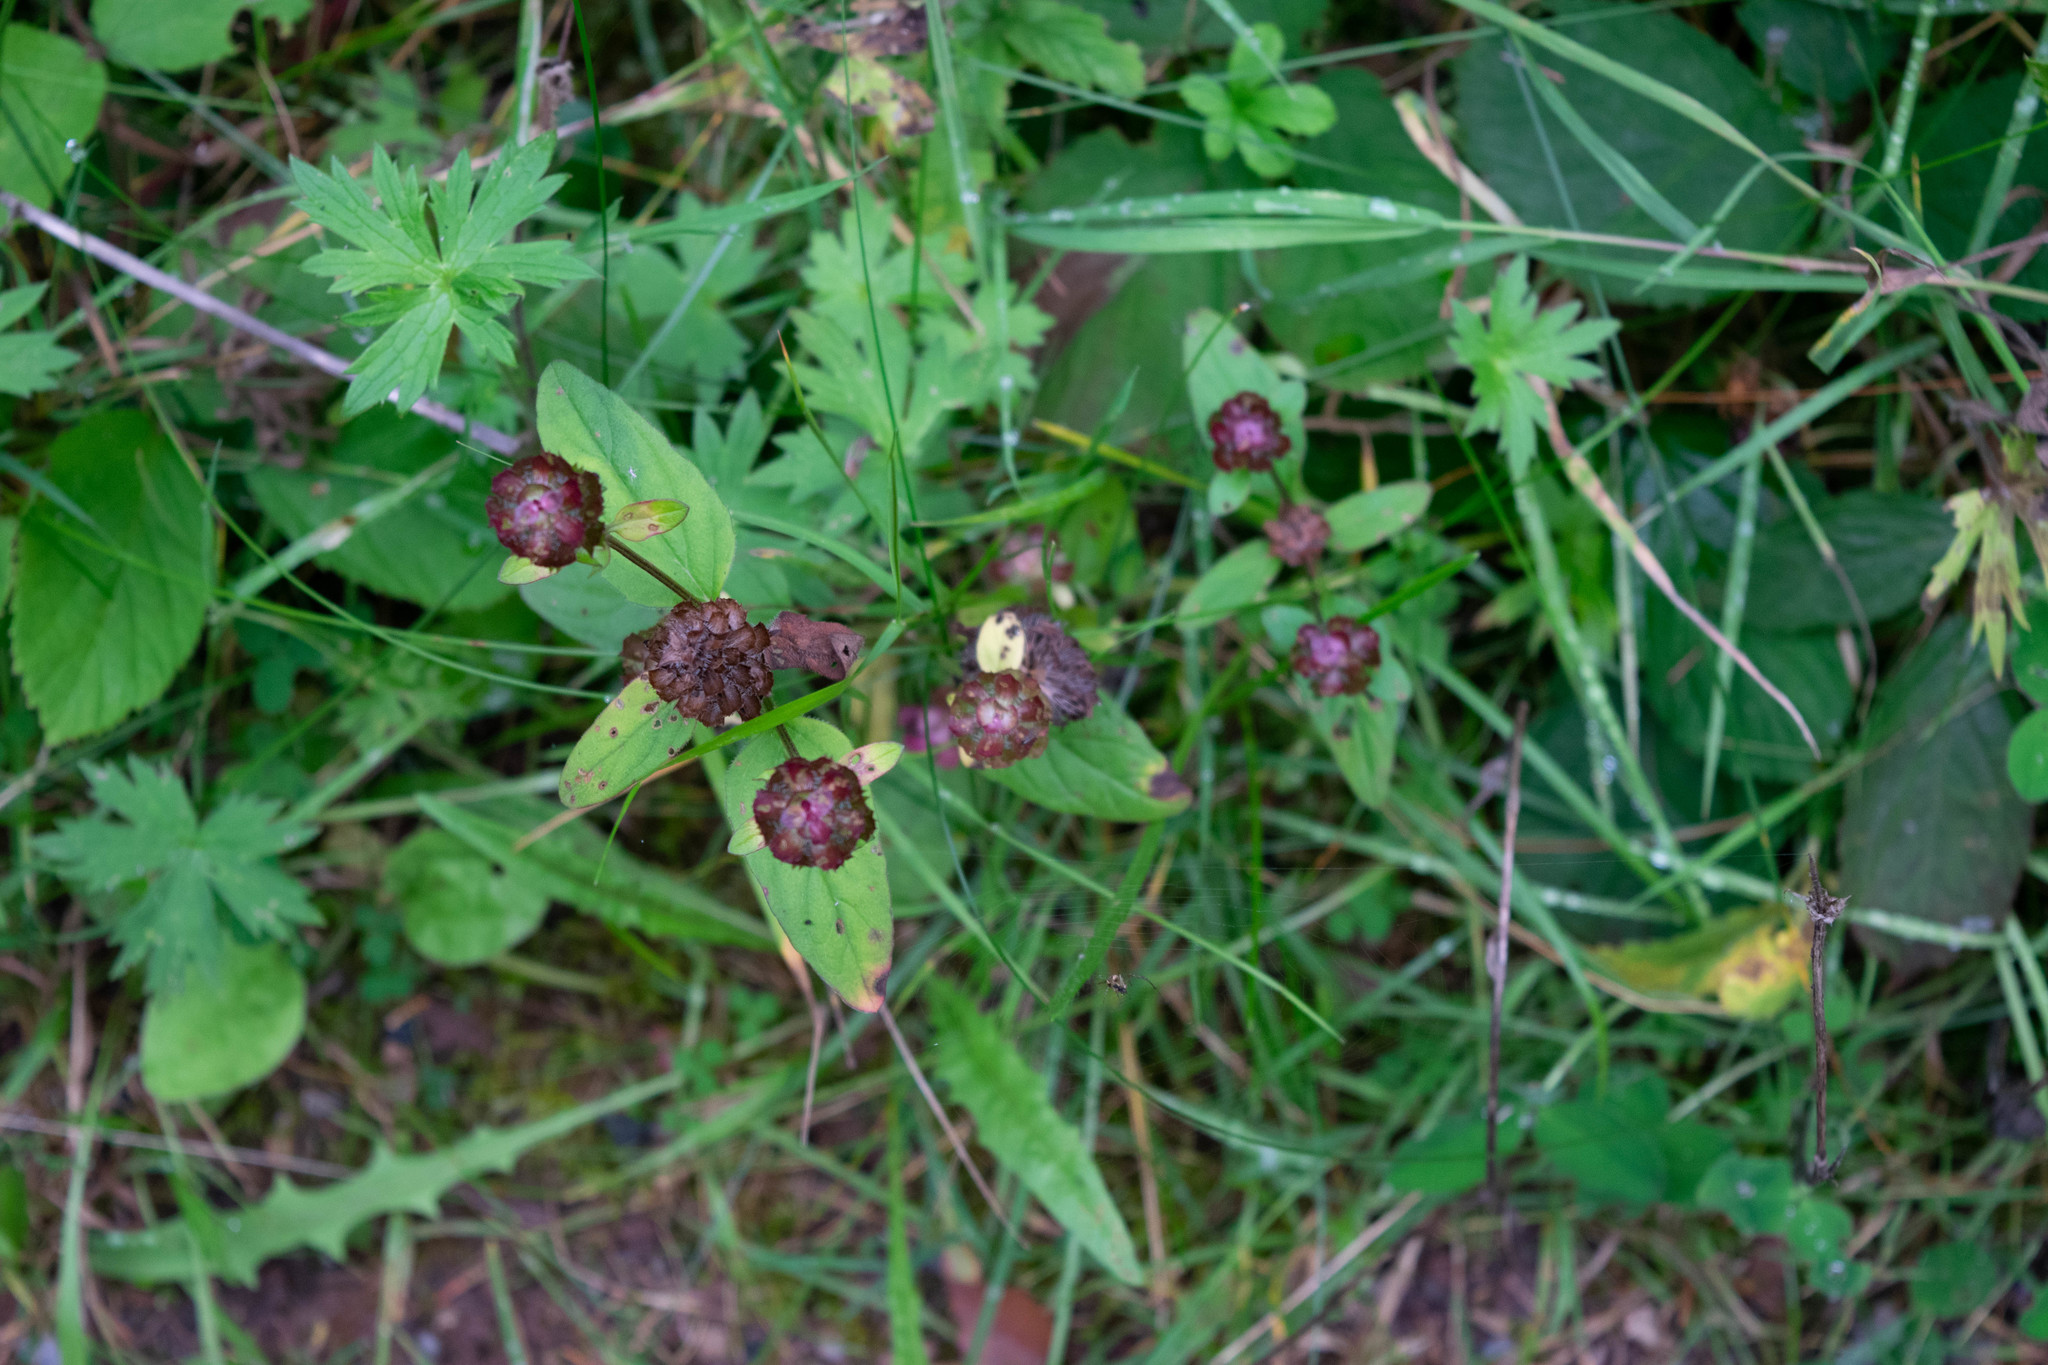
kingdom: Plantae
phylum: Tracheophyta
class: Magnoliopsida
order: Lamiales
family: Lamiaceae
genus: Prunella
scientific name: Prunella vulgaris
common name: Heal-all
